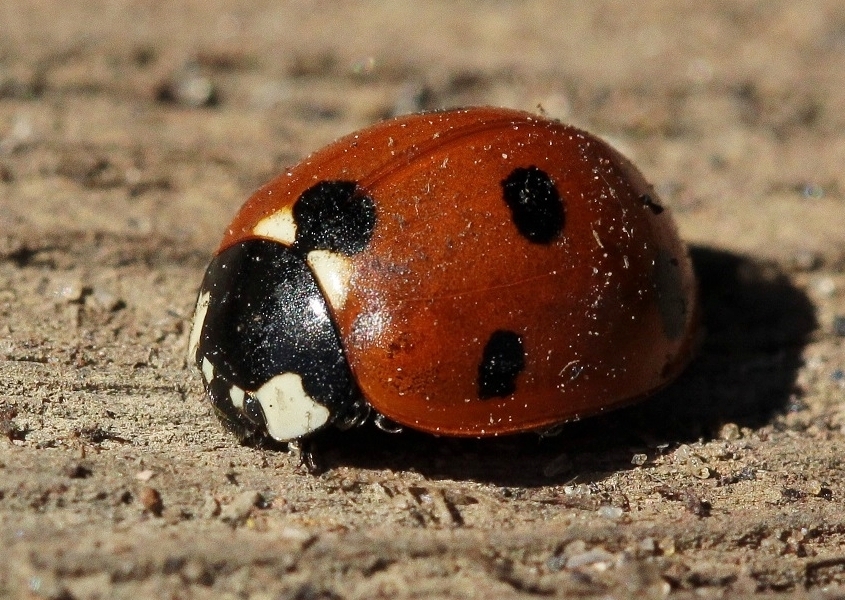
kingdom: Animalia
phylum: Arthropoda
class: Insecta
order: Coleoptera
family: Coccinellidae
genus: Coccinella
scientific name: Coccinella septempunctata
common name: Sevenspotted lady beetle
